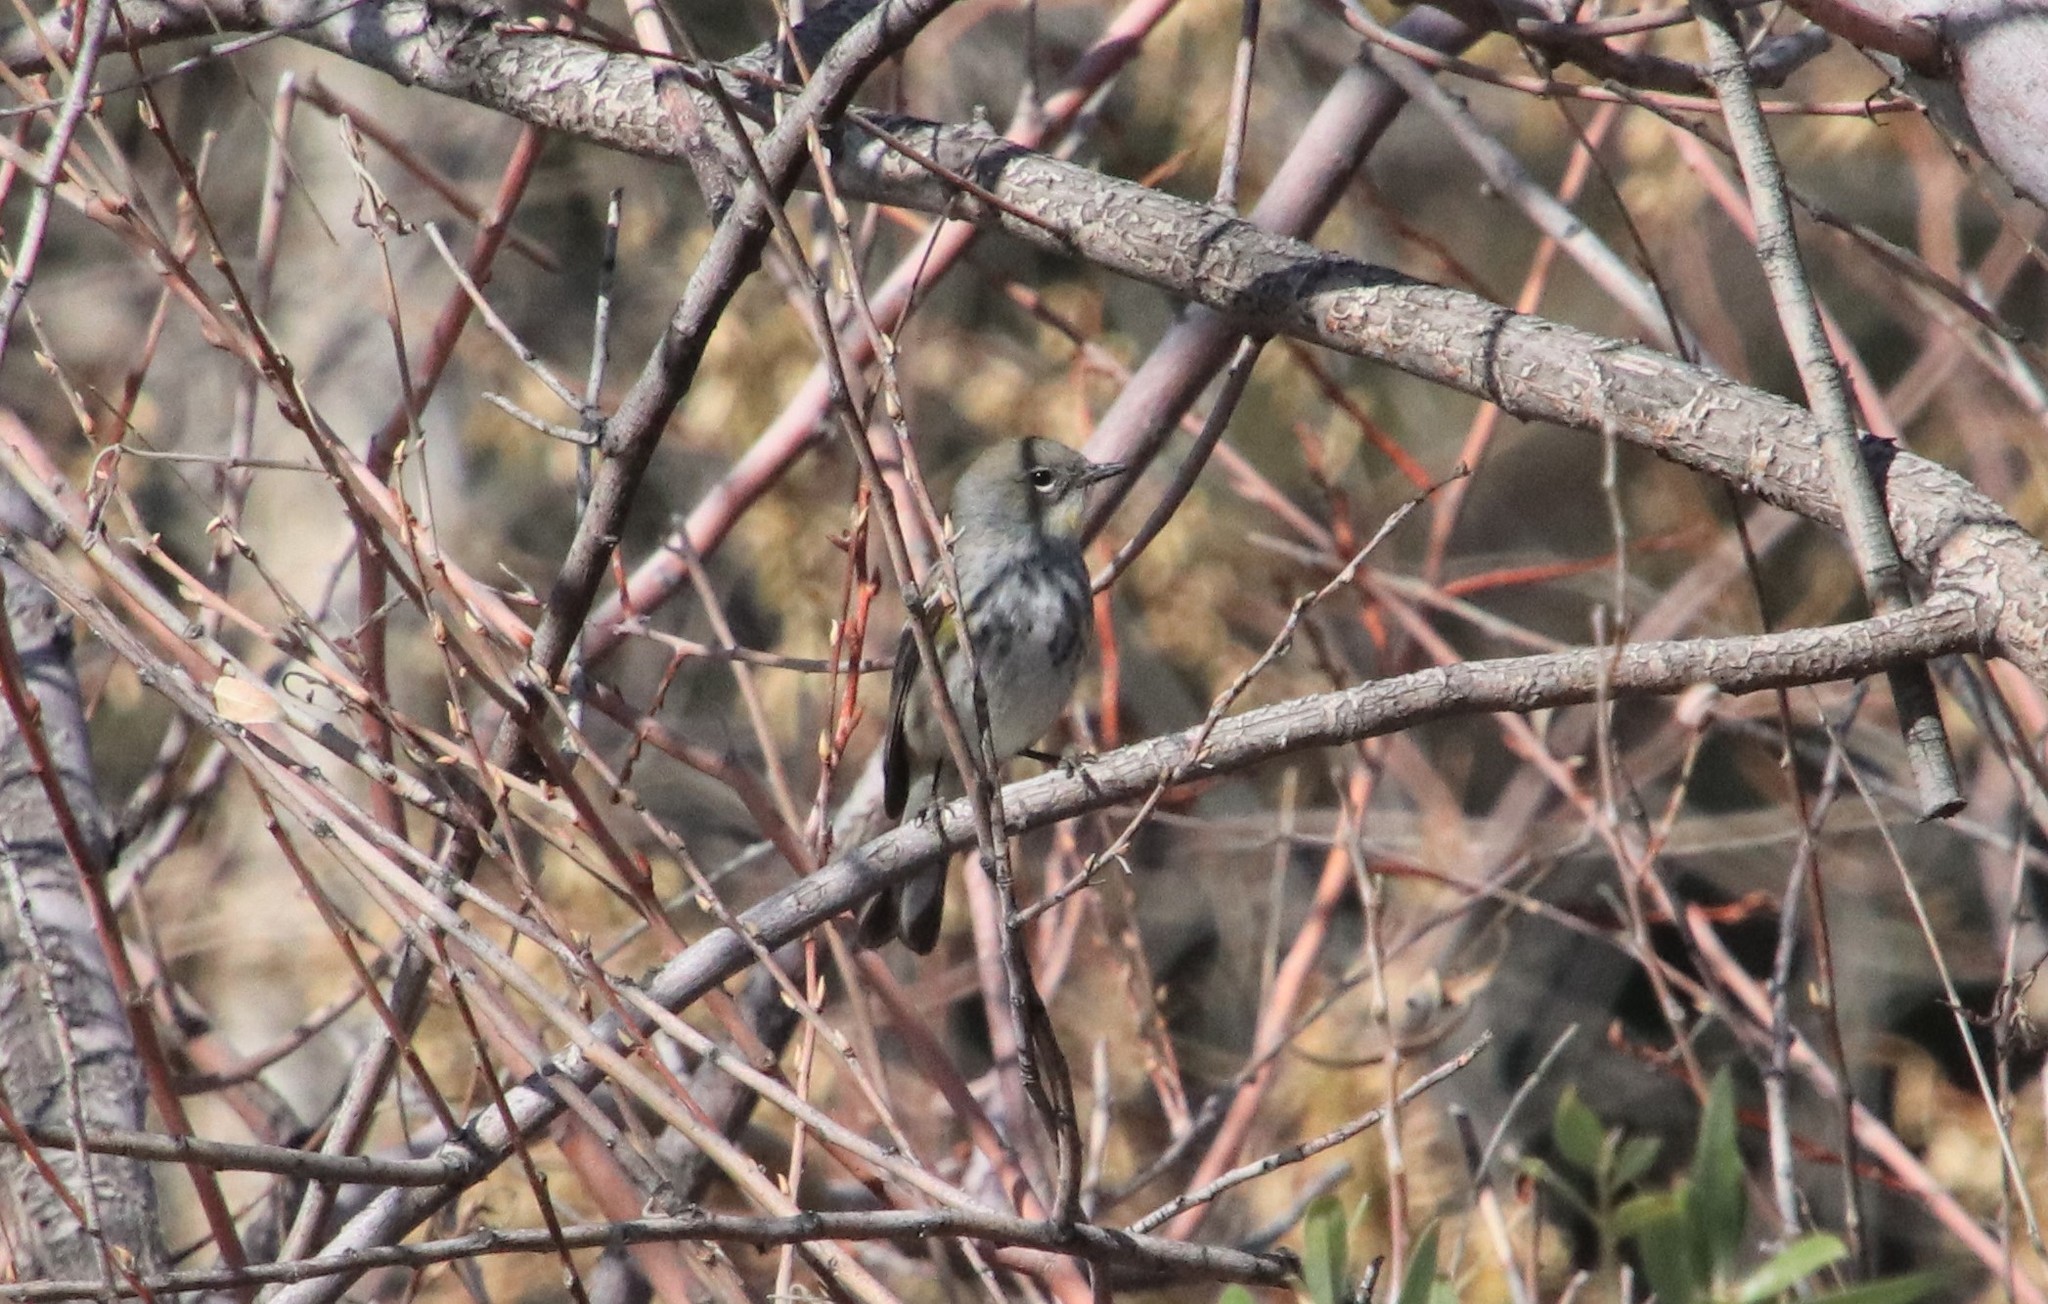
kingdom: Animalia
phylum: Chordata
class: Aves
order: Passeriformes
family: Parulidae
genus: Setophaga
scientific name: Setophaga auduboni
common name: Audubon's warbler
